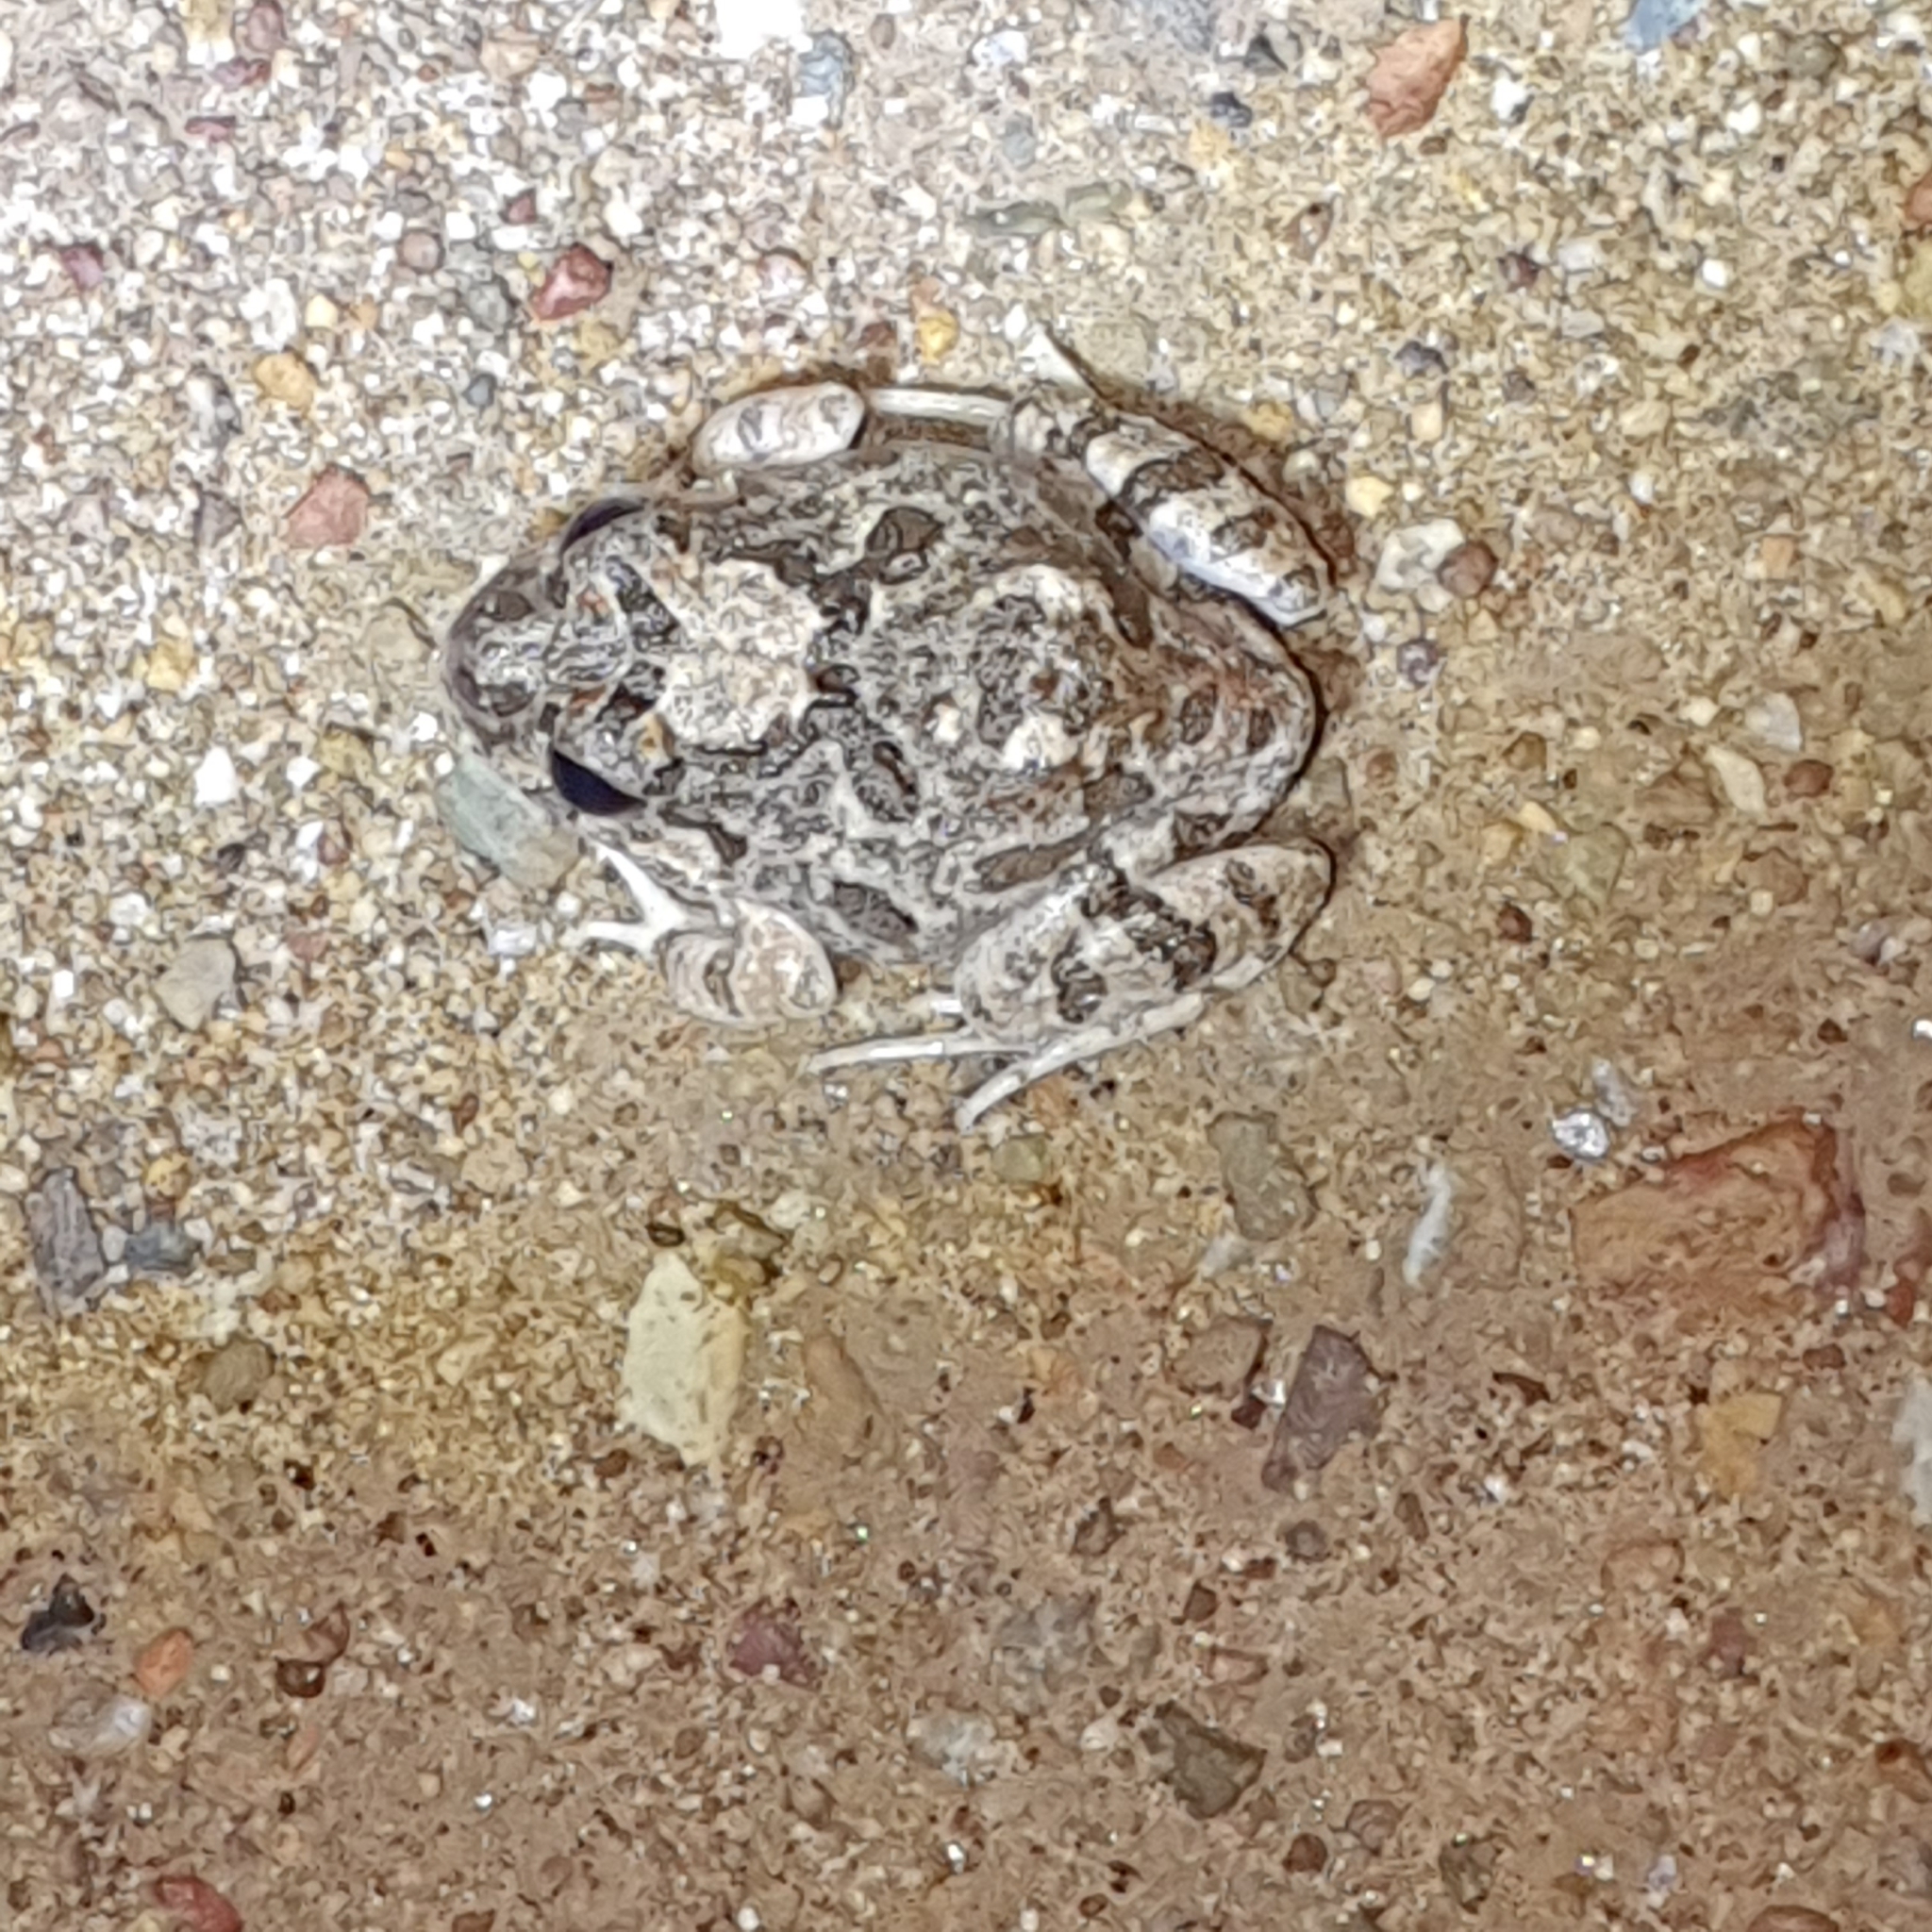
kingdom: Animalia
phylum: Chordata
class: Amphibia
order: Anura
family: Limnodynastidae
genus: Platyplectrum
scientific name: Platyplectrum ornatum
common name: Ornate burrowing frog
